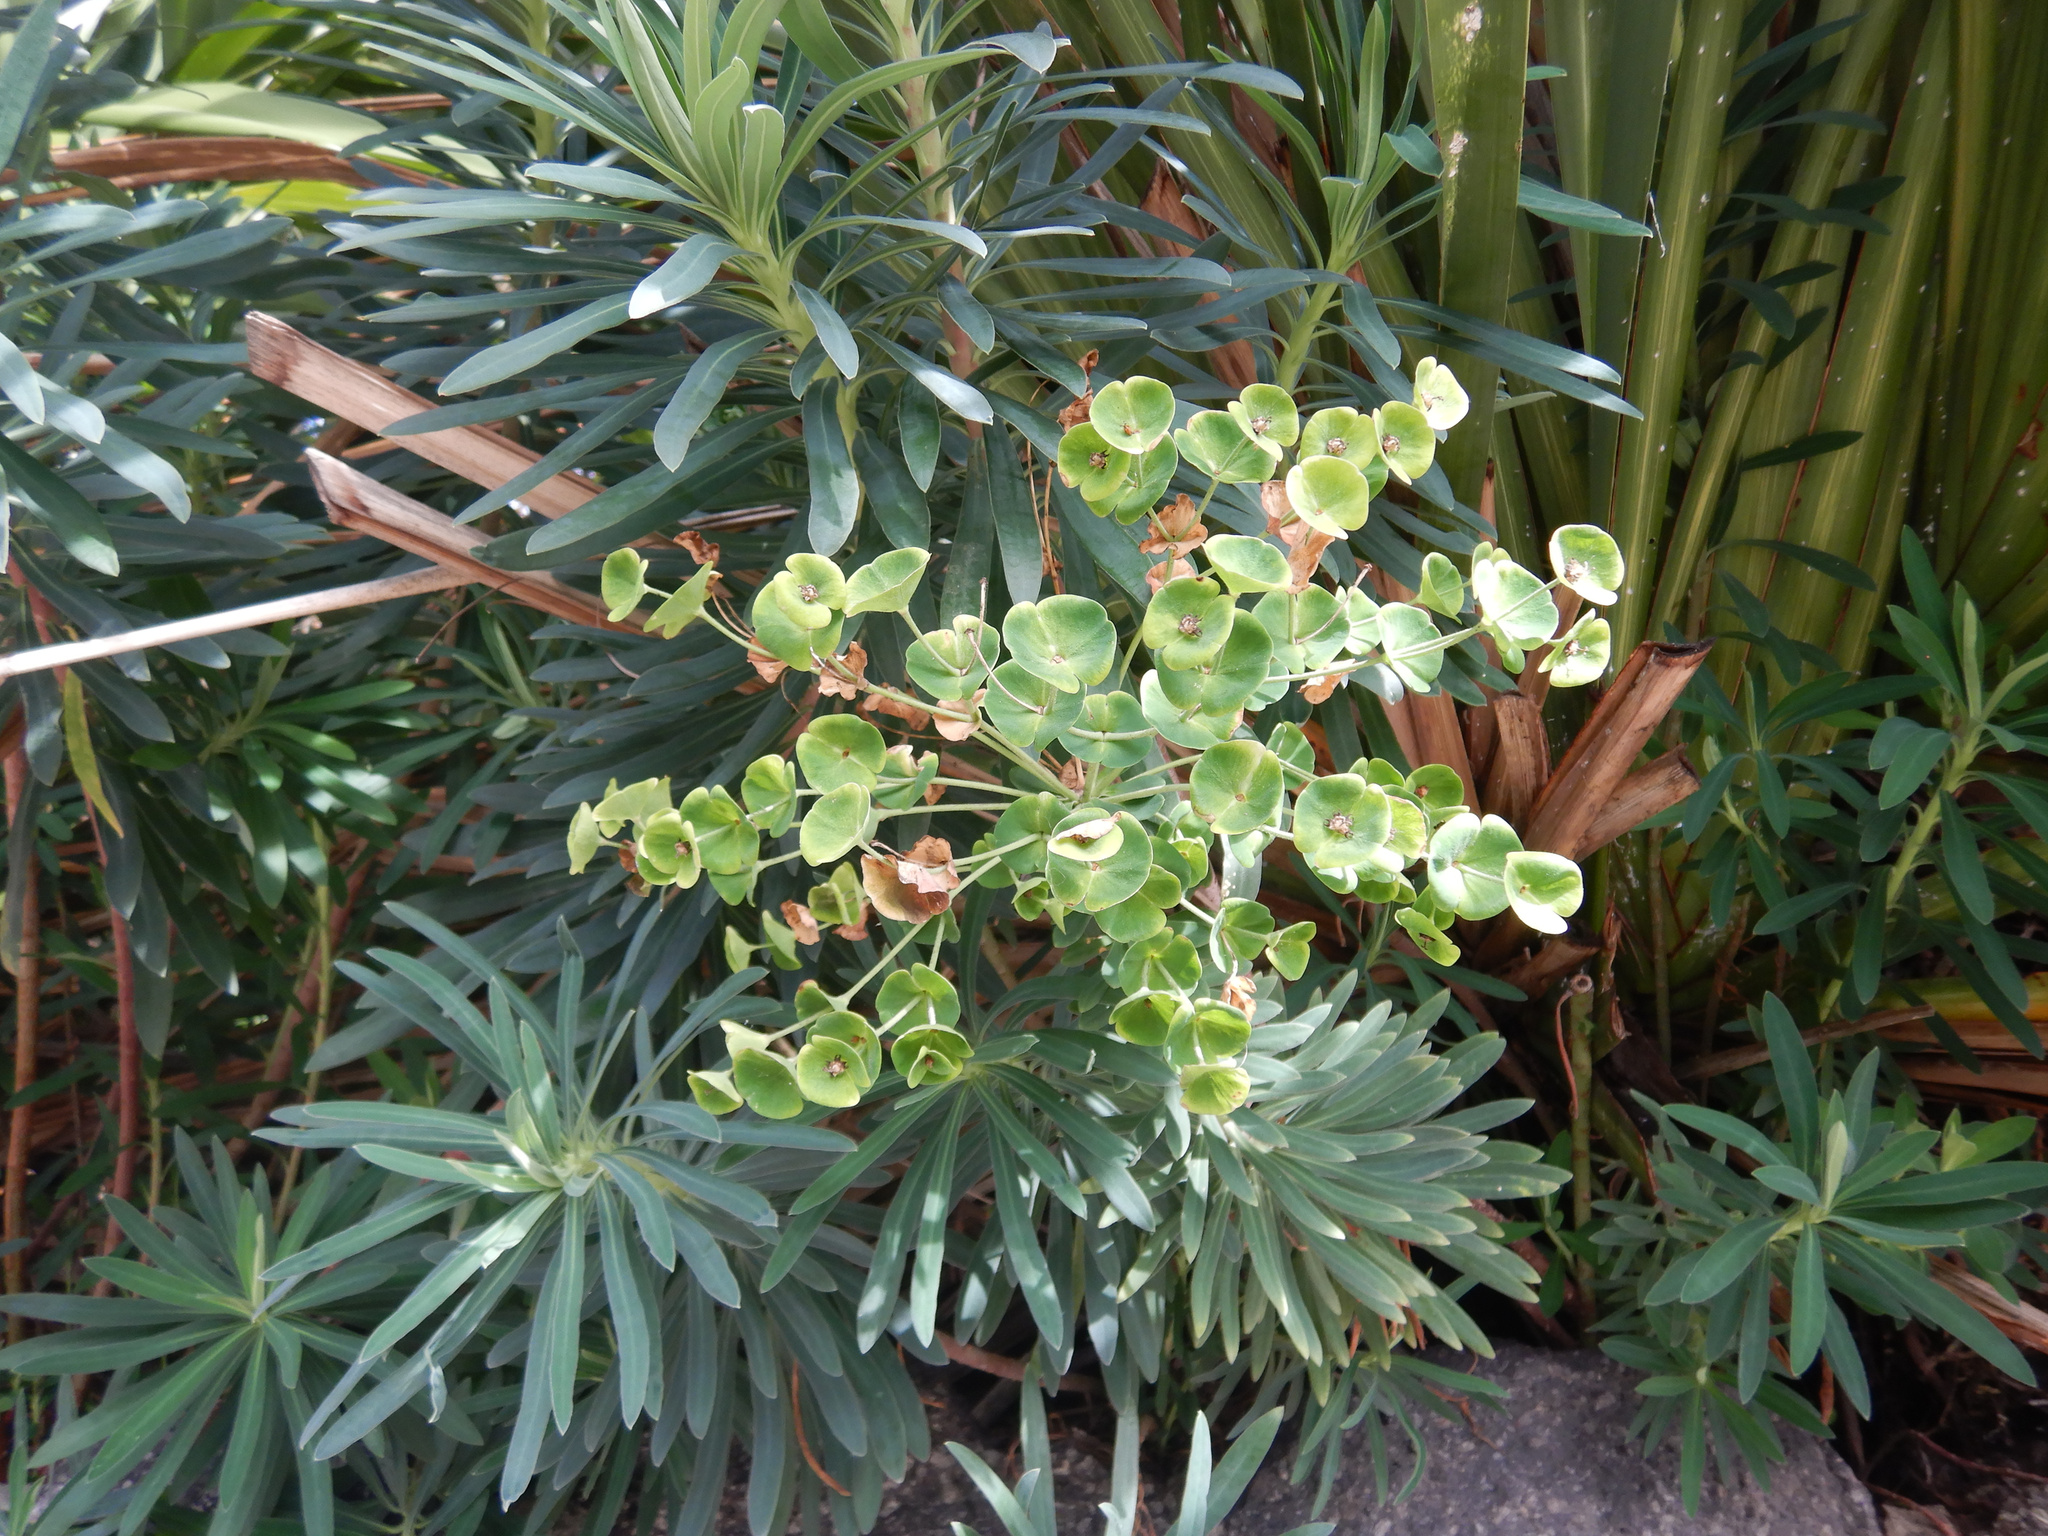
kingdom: Plantae
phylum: Tracheophyta
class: Magnoliopsida
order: Malpighiales
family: Euphorbiaceae
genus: Euphorbia
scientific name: Euphorbia characias
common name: Mediterranean spurge
